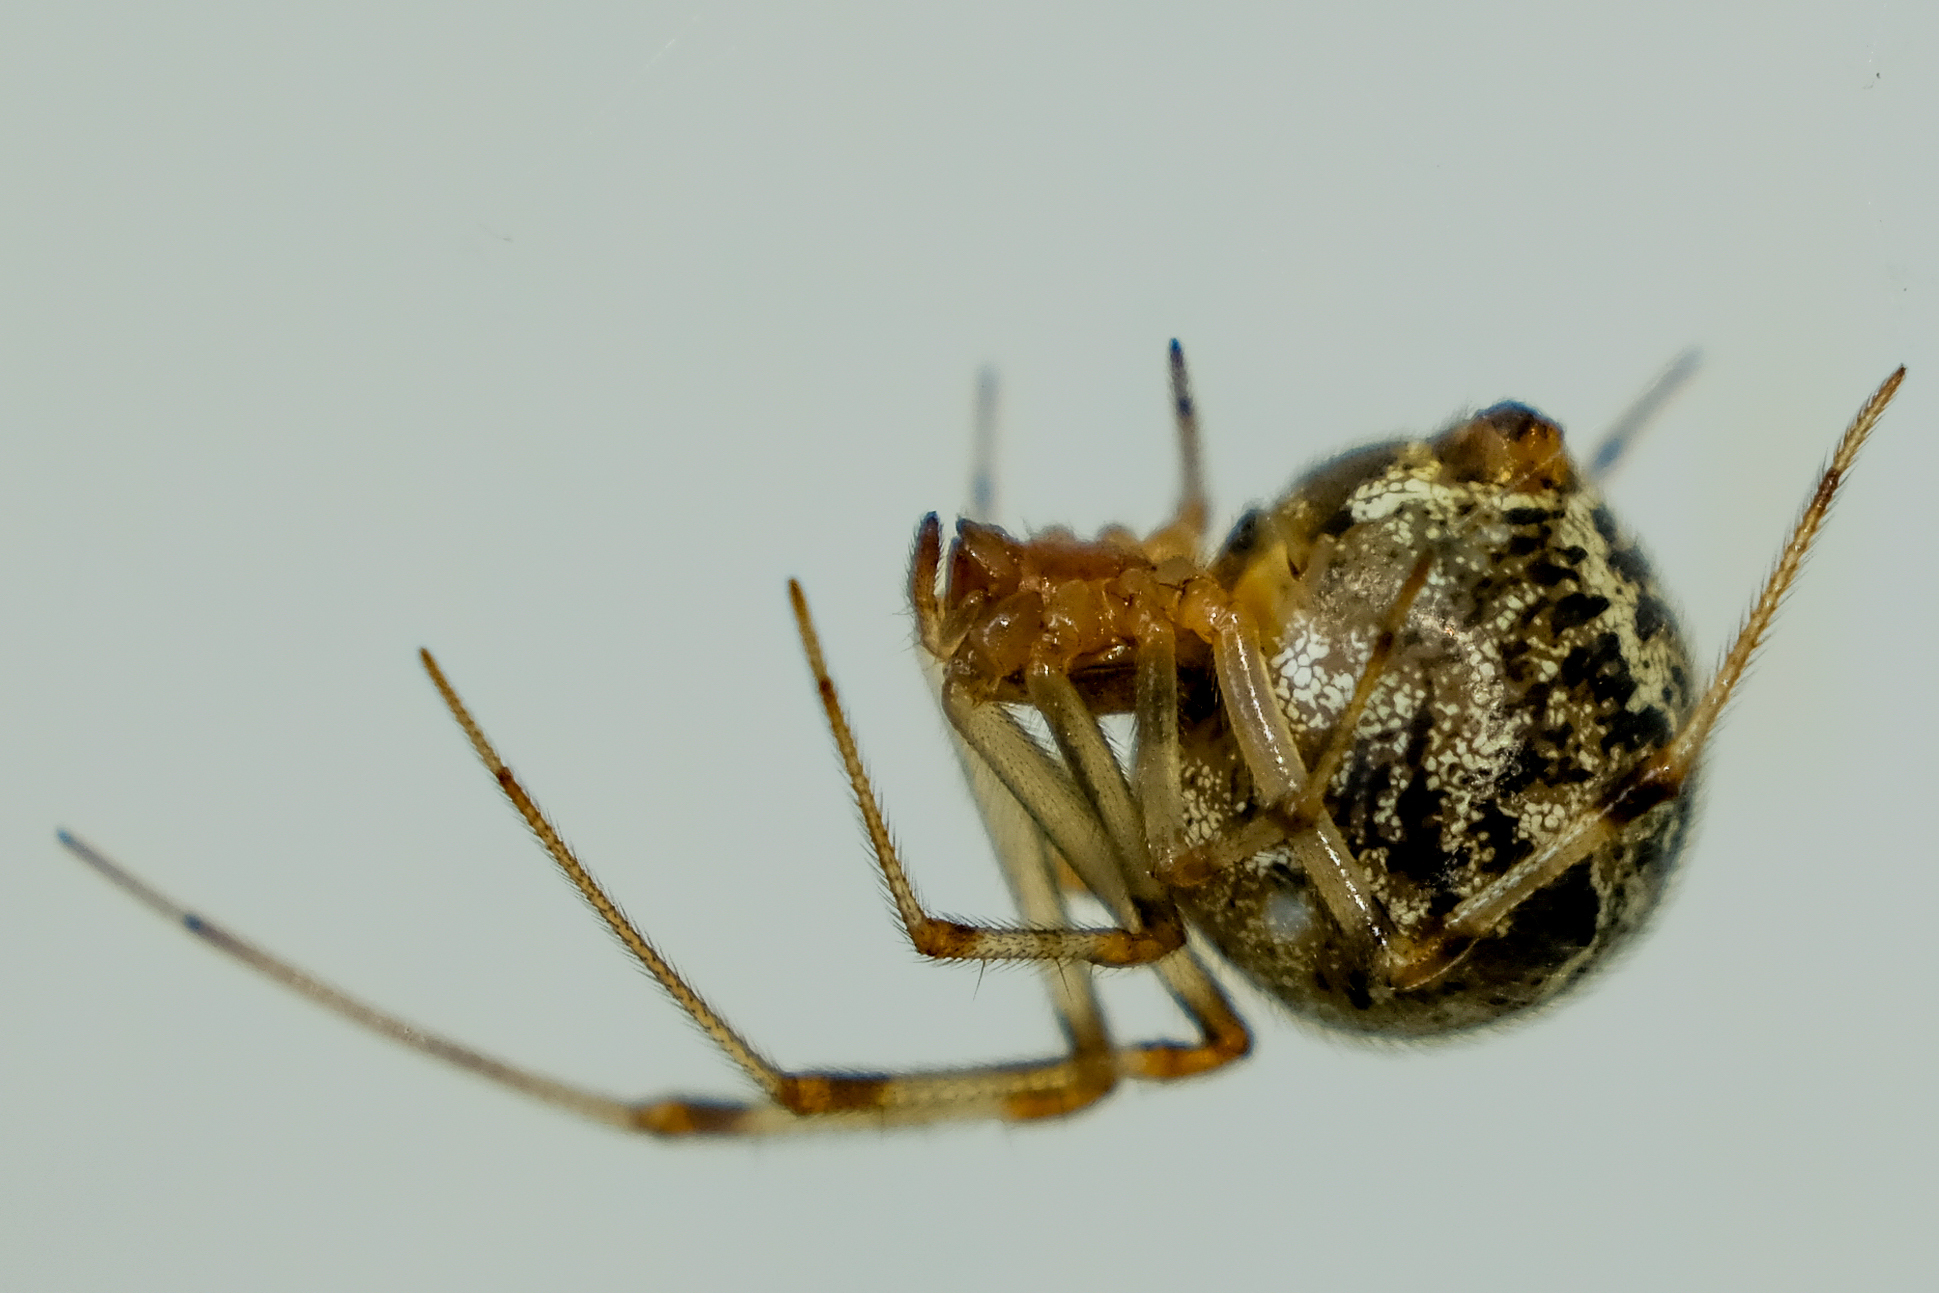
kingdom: Animalia
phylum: Arthropoda
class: Arachnida
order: Araneae
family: Theridiidae
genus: Parasteatoda
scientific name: Parasteatoda tepidariorum
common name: Common house spider
